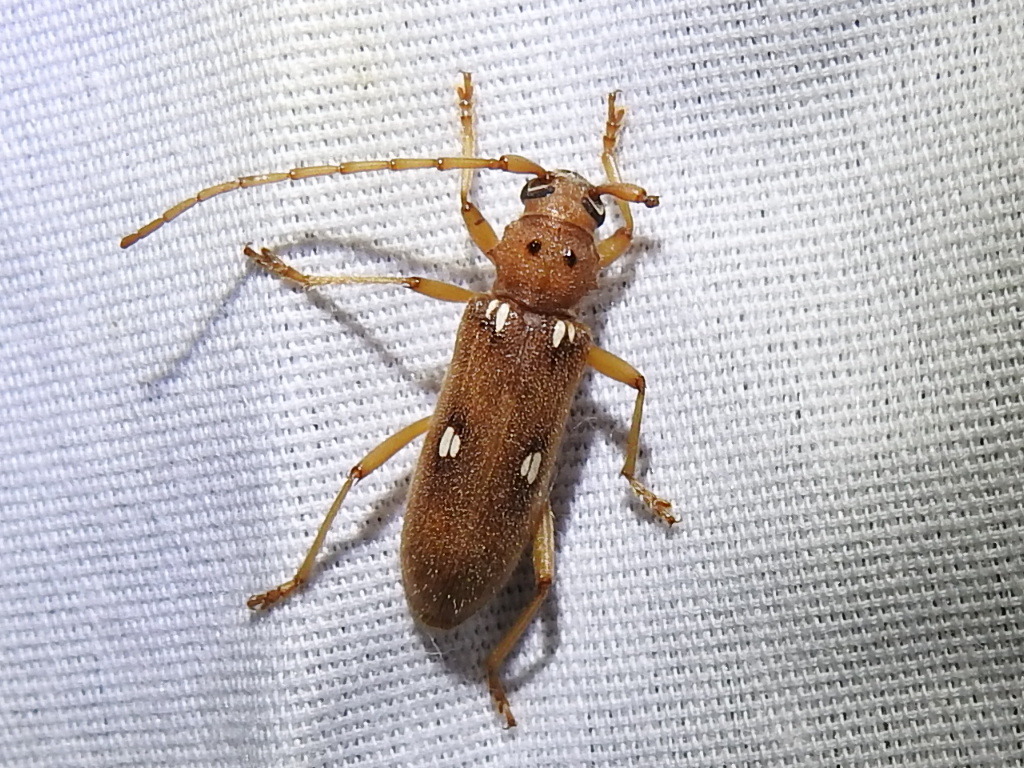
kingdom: Animalia
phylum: Arthropoda
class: Insecta
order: Coleoptera
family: Cerambycidae
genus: Eburia
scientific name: Eburia quadrigeminata
